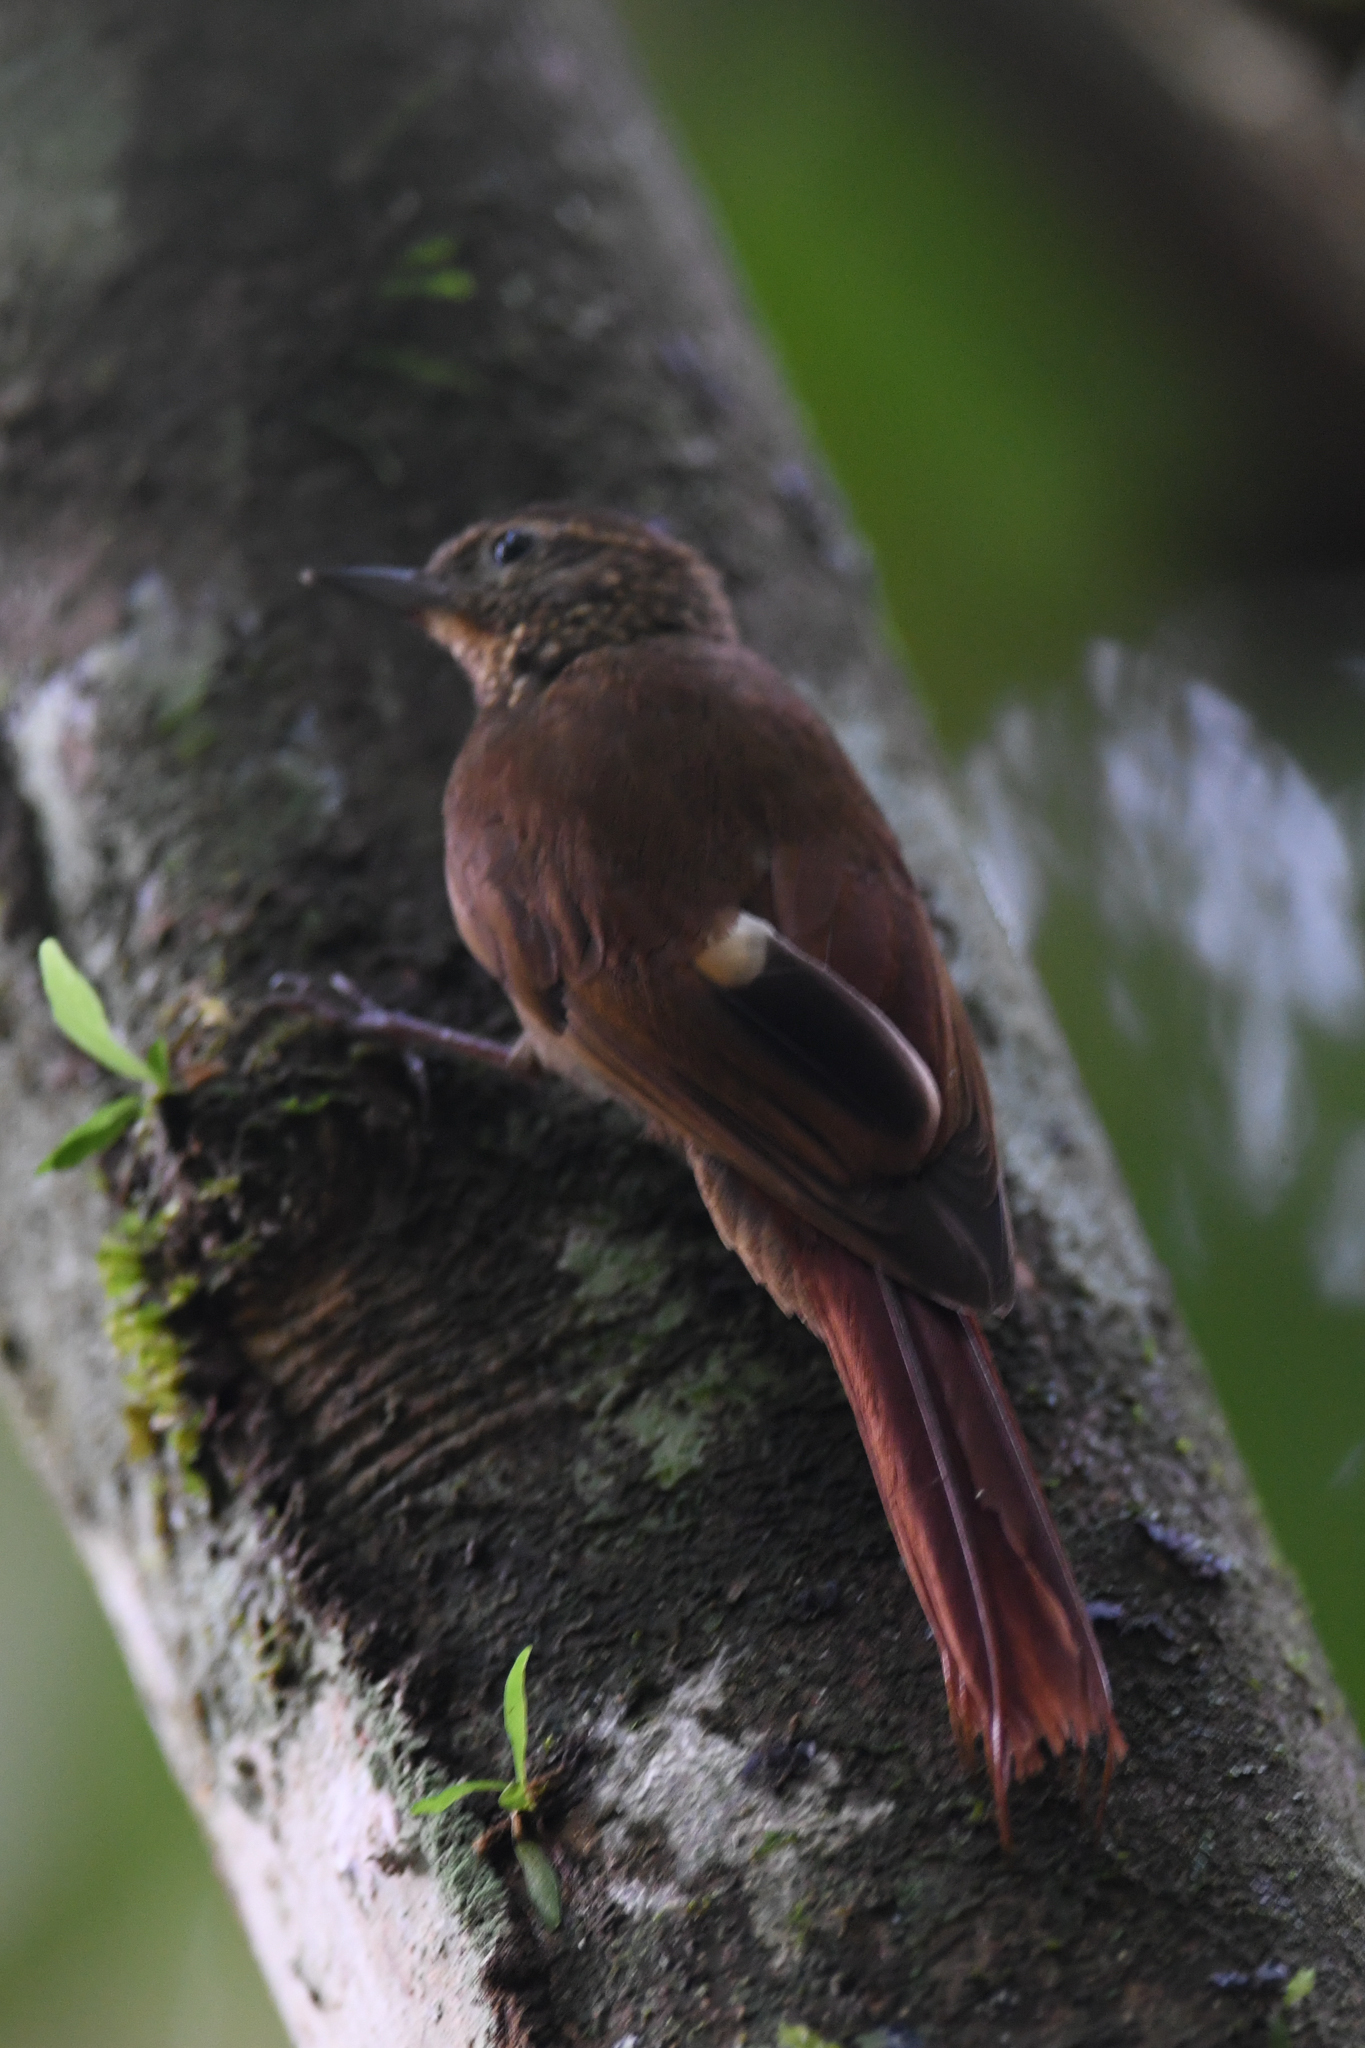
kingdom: Animalia
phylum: Chordata
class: Aves
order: Passeriformes
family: Furnariidae
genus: Glyphorynchus
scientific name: Glyphorynchus spirurus
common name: Wedge-billed woodcreeper
